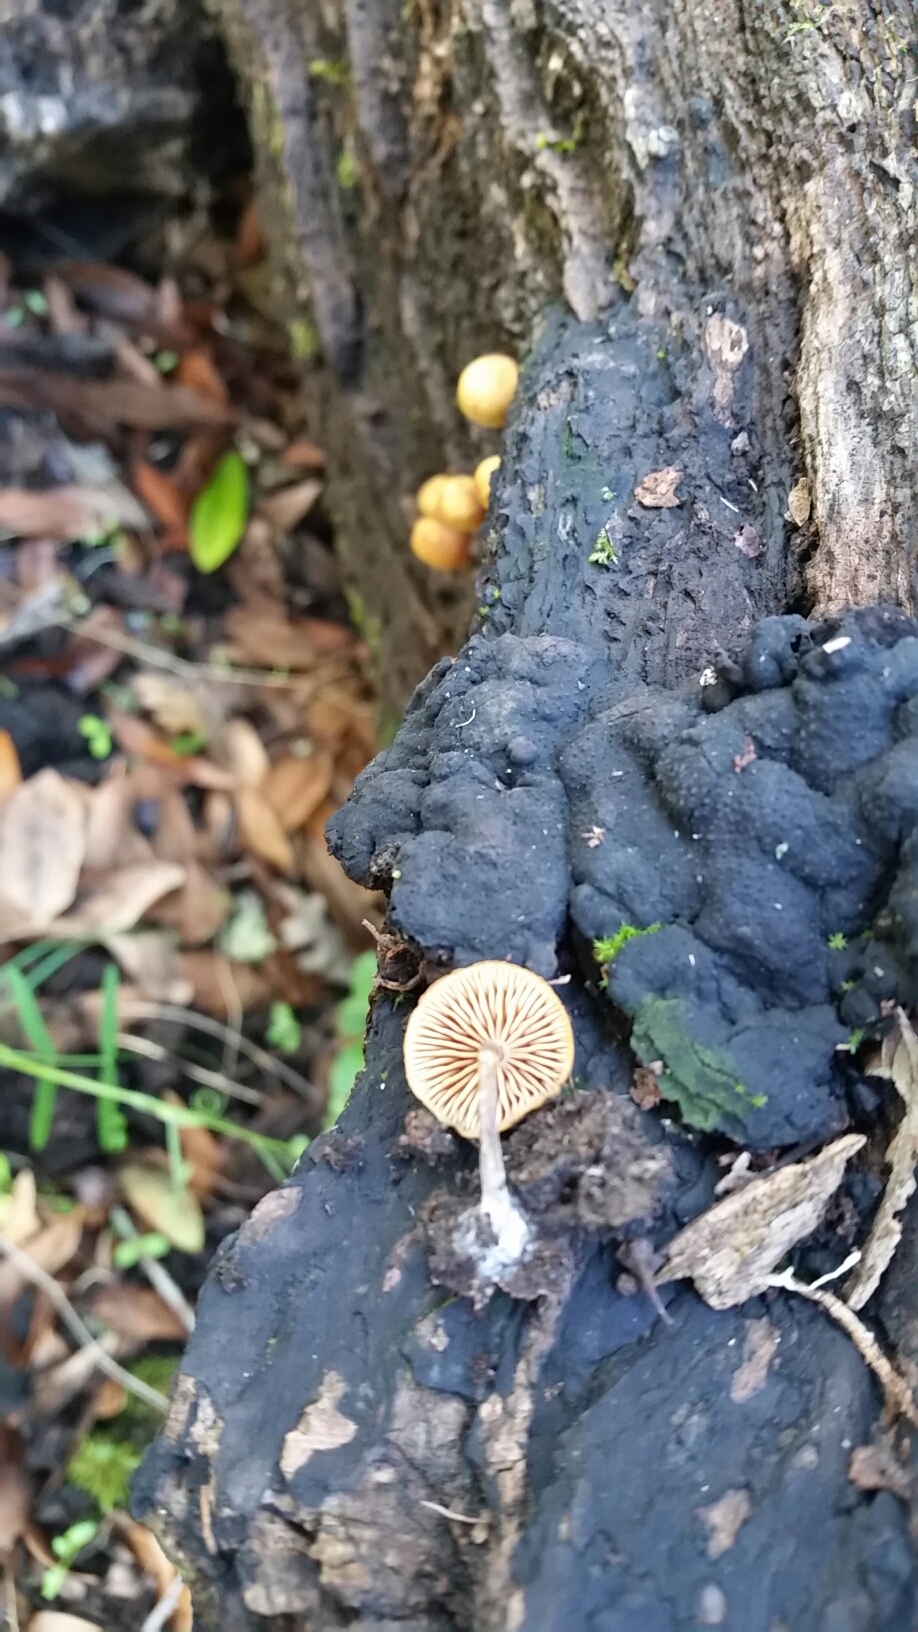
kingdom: Fungi
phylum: Basidiomycota
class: Agaricomycetes
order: Agaricales
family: Hymenogastraceae
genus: Galerina
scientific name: Galerina marginata
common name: Funeral bell
